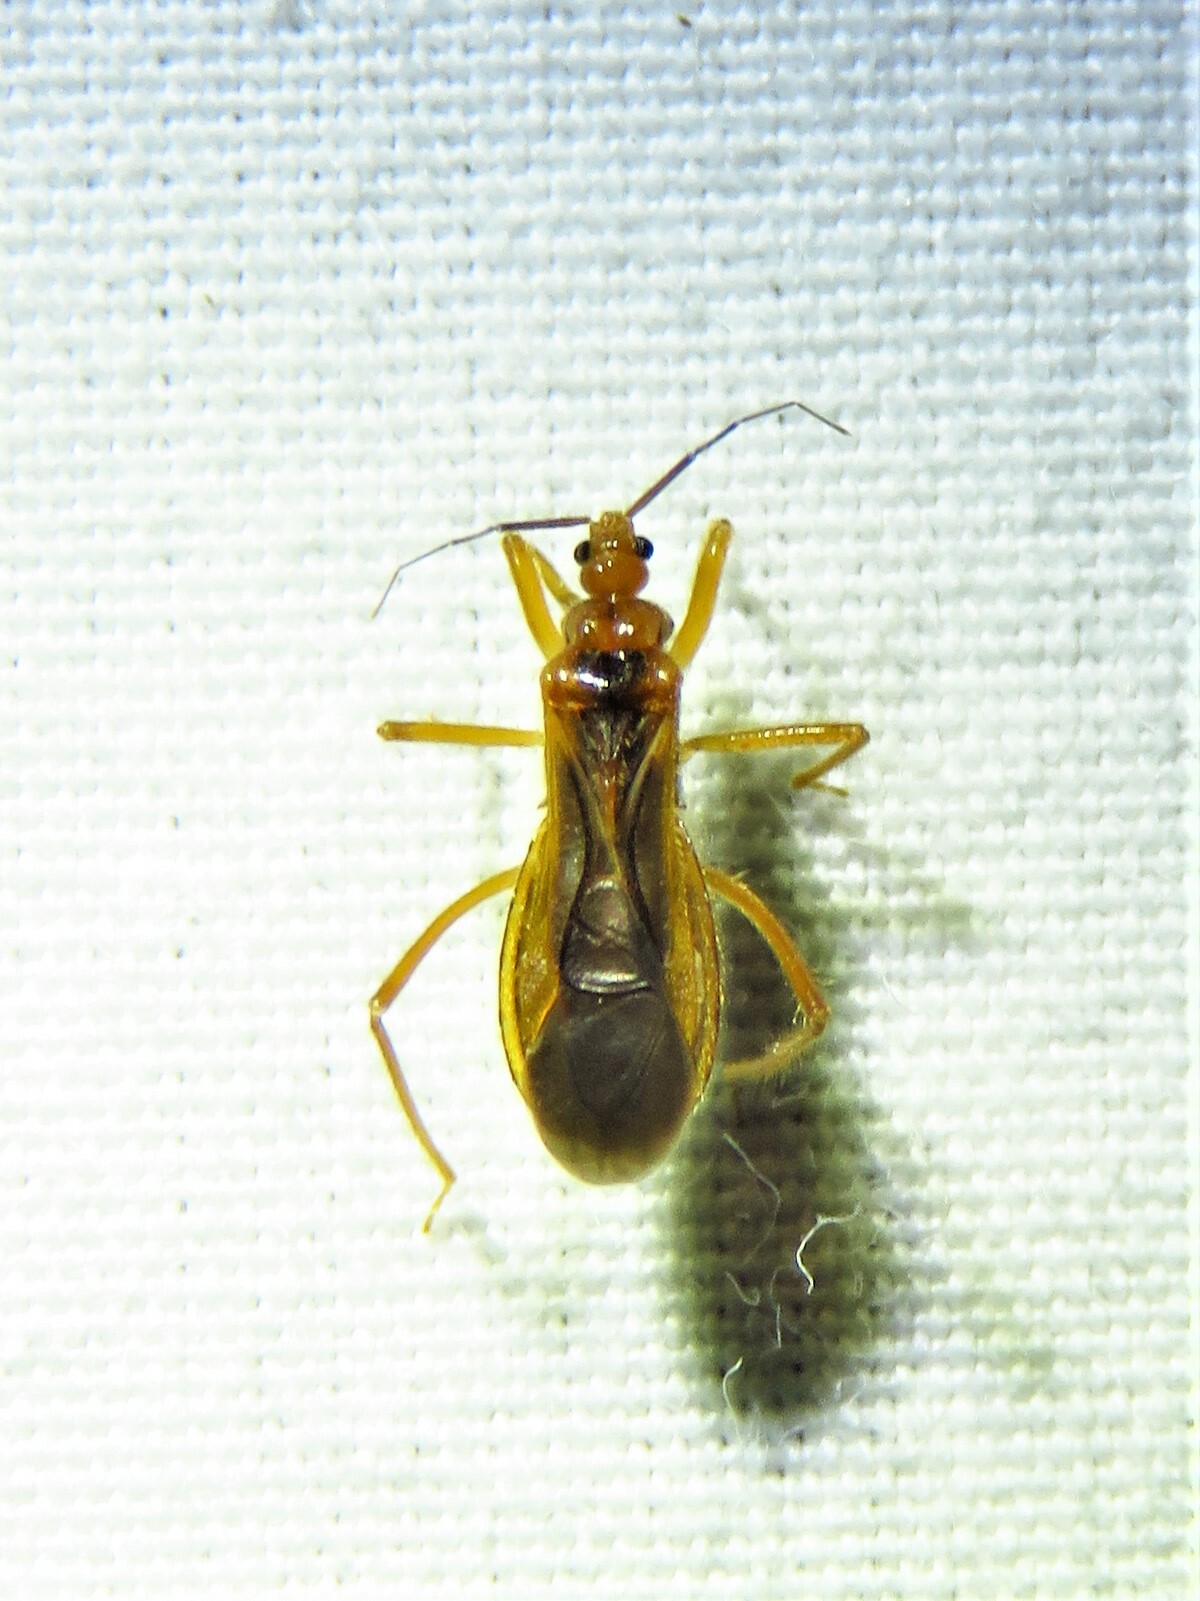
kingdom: Animalia
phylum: Arthropoda
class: Insecta
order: Hemiptera
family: Reduviidae
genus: Oncerotrachelus
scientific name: Oncerotrachelus acuminatus
